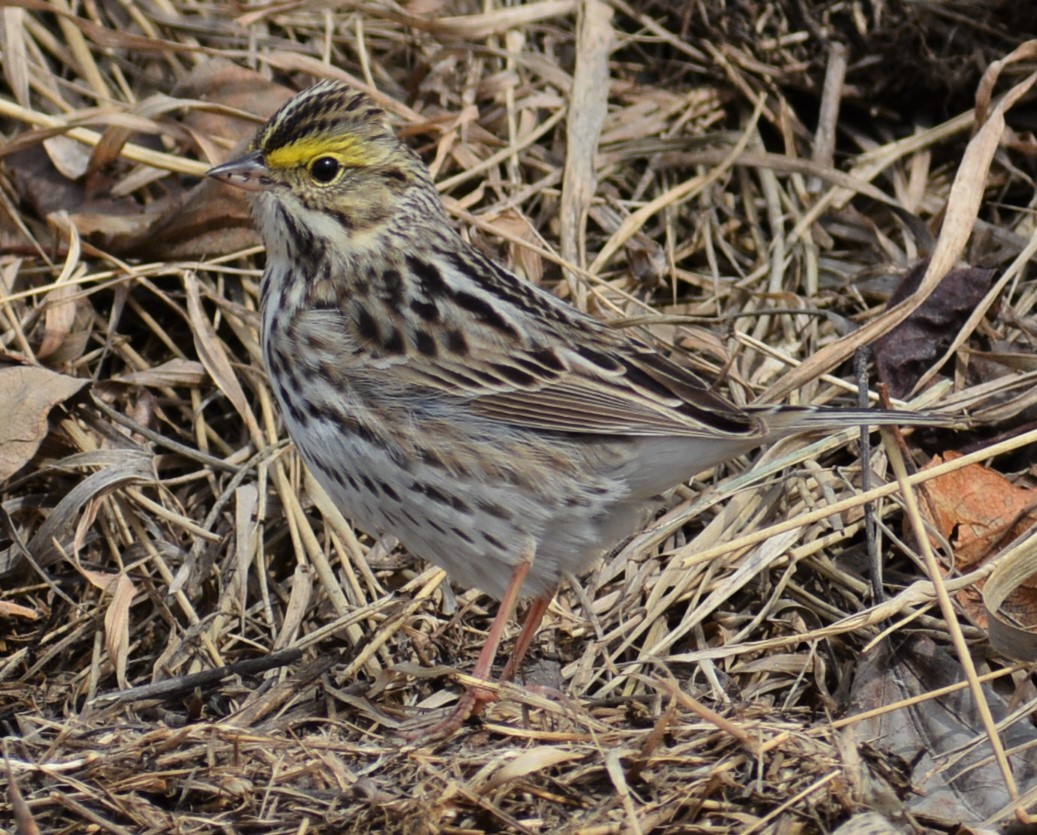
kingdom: Animalia
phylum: Chordata
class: Aves
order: Passeriformes
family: Passerellidae
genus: Passerculus
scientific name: Passerculus sandwichensis
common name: Savannah sparrow
